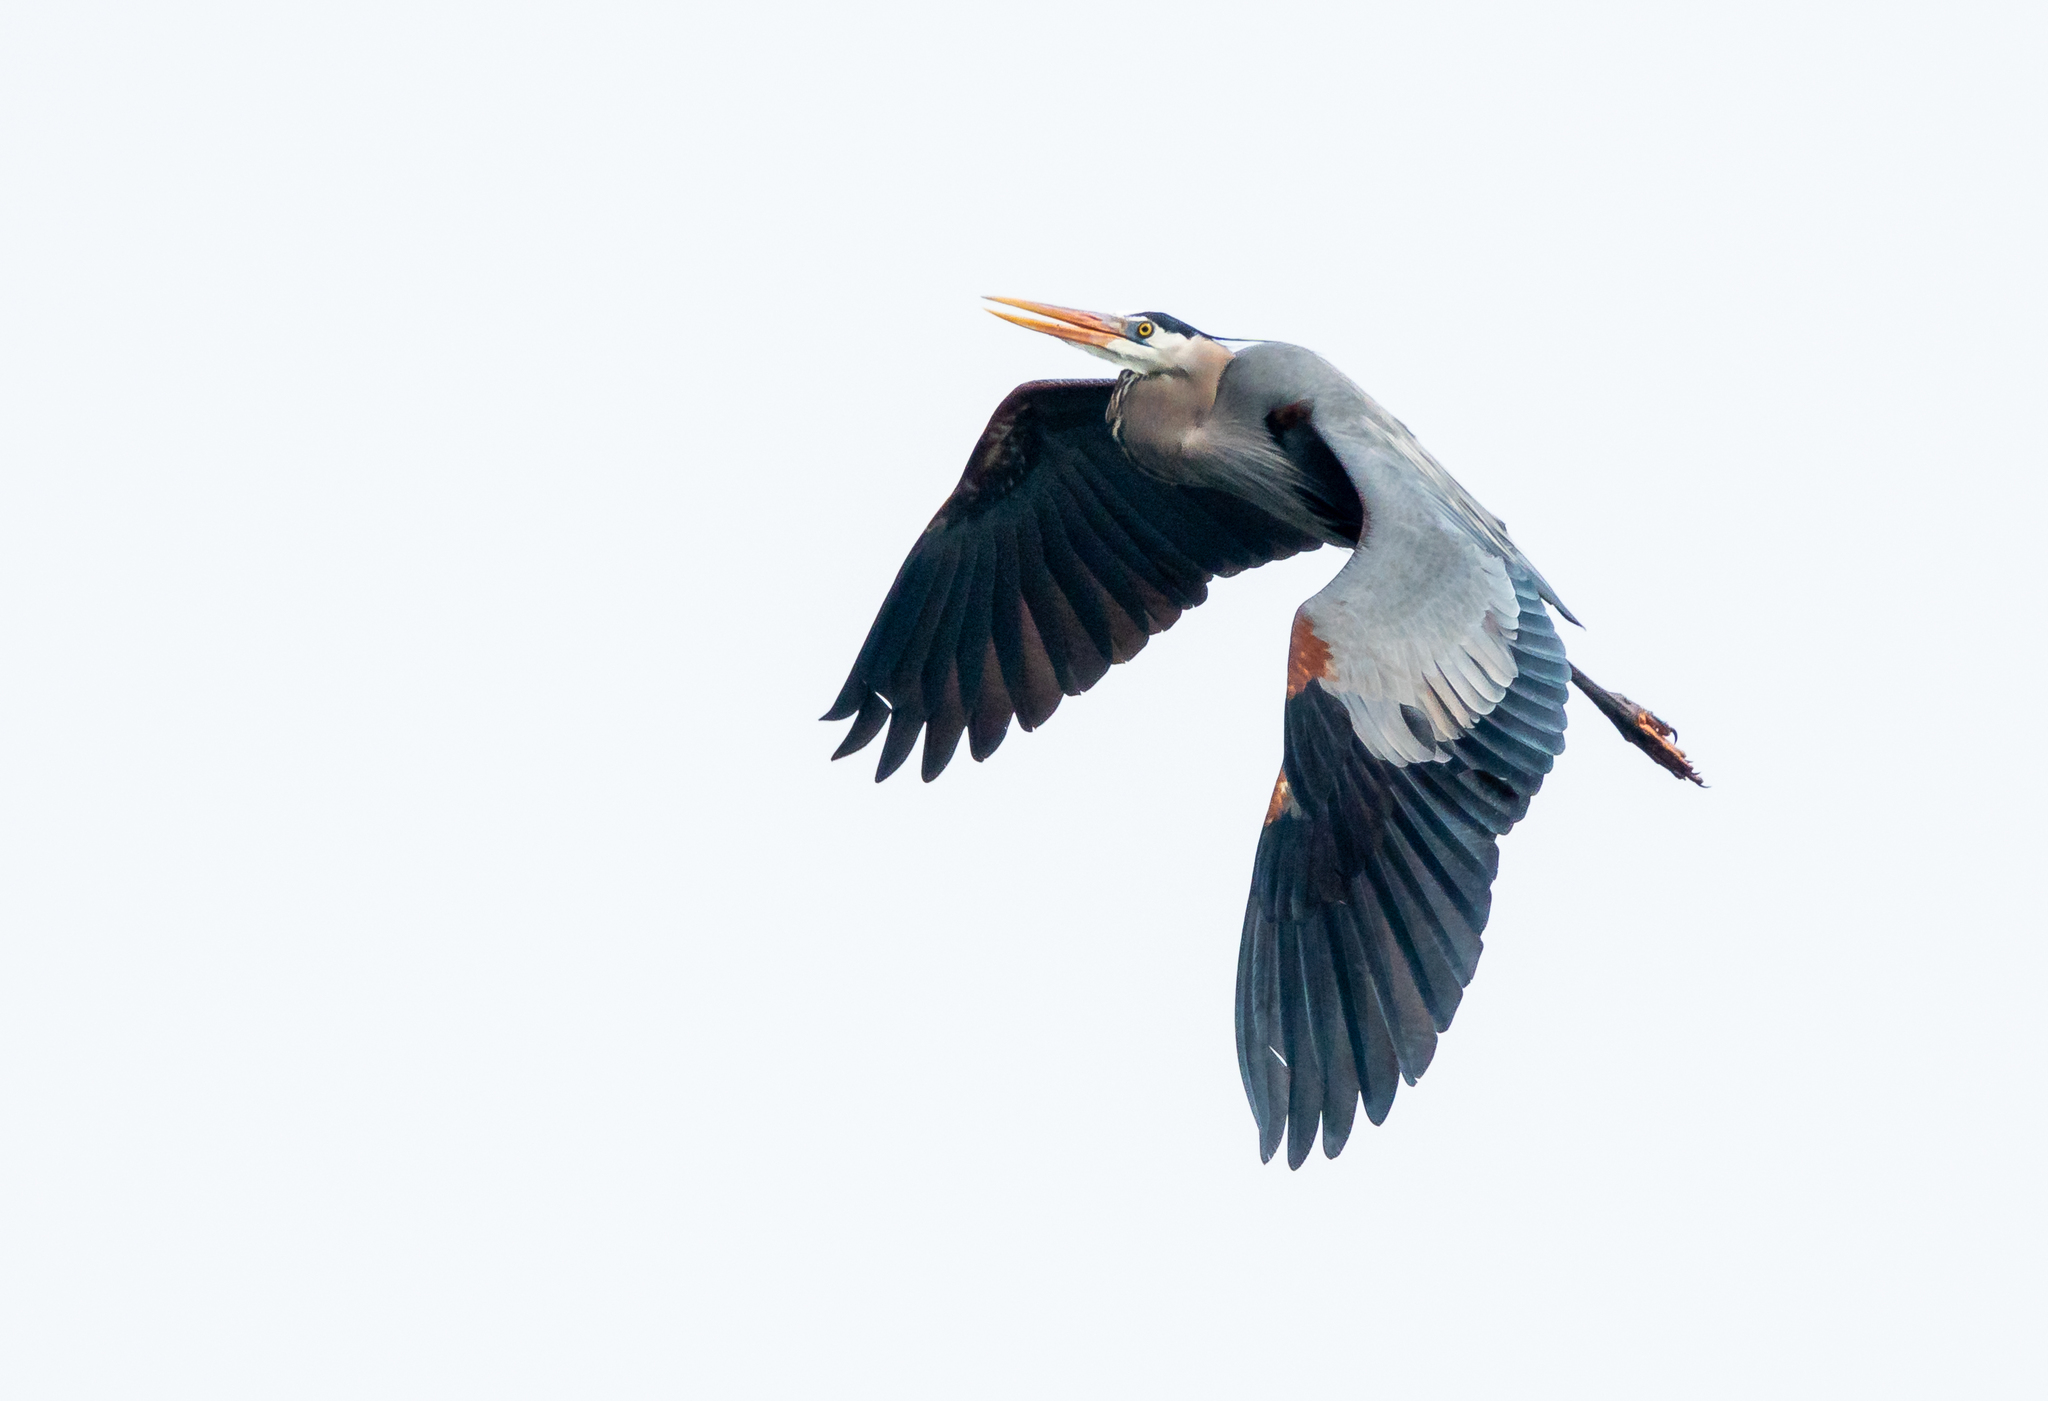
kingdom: Animalia
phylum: Chordata
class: Aves
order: Pelecaniformes
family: Ardeidae
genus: Ardea
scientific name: Ardea herodias
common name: Great blue heron
